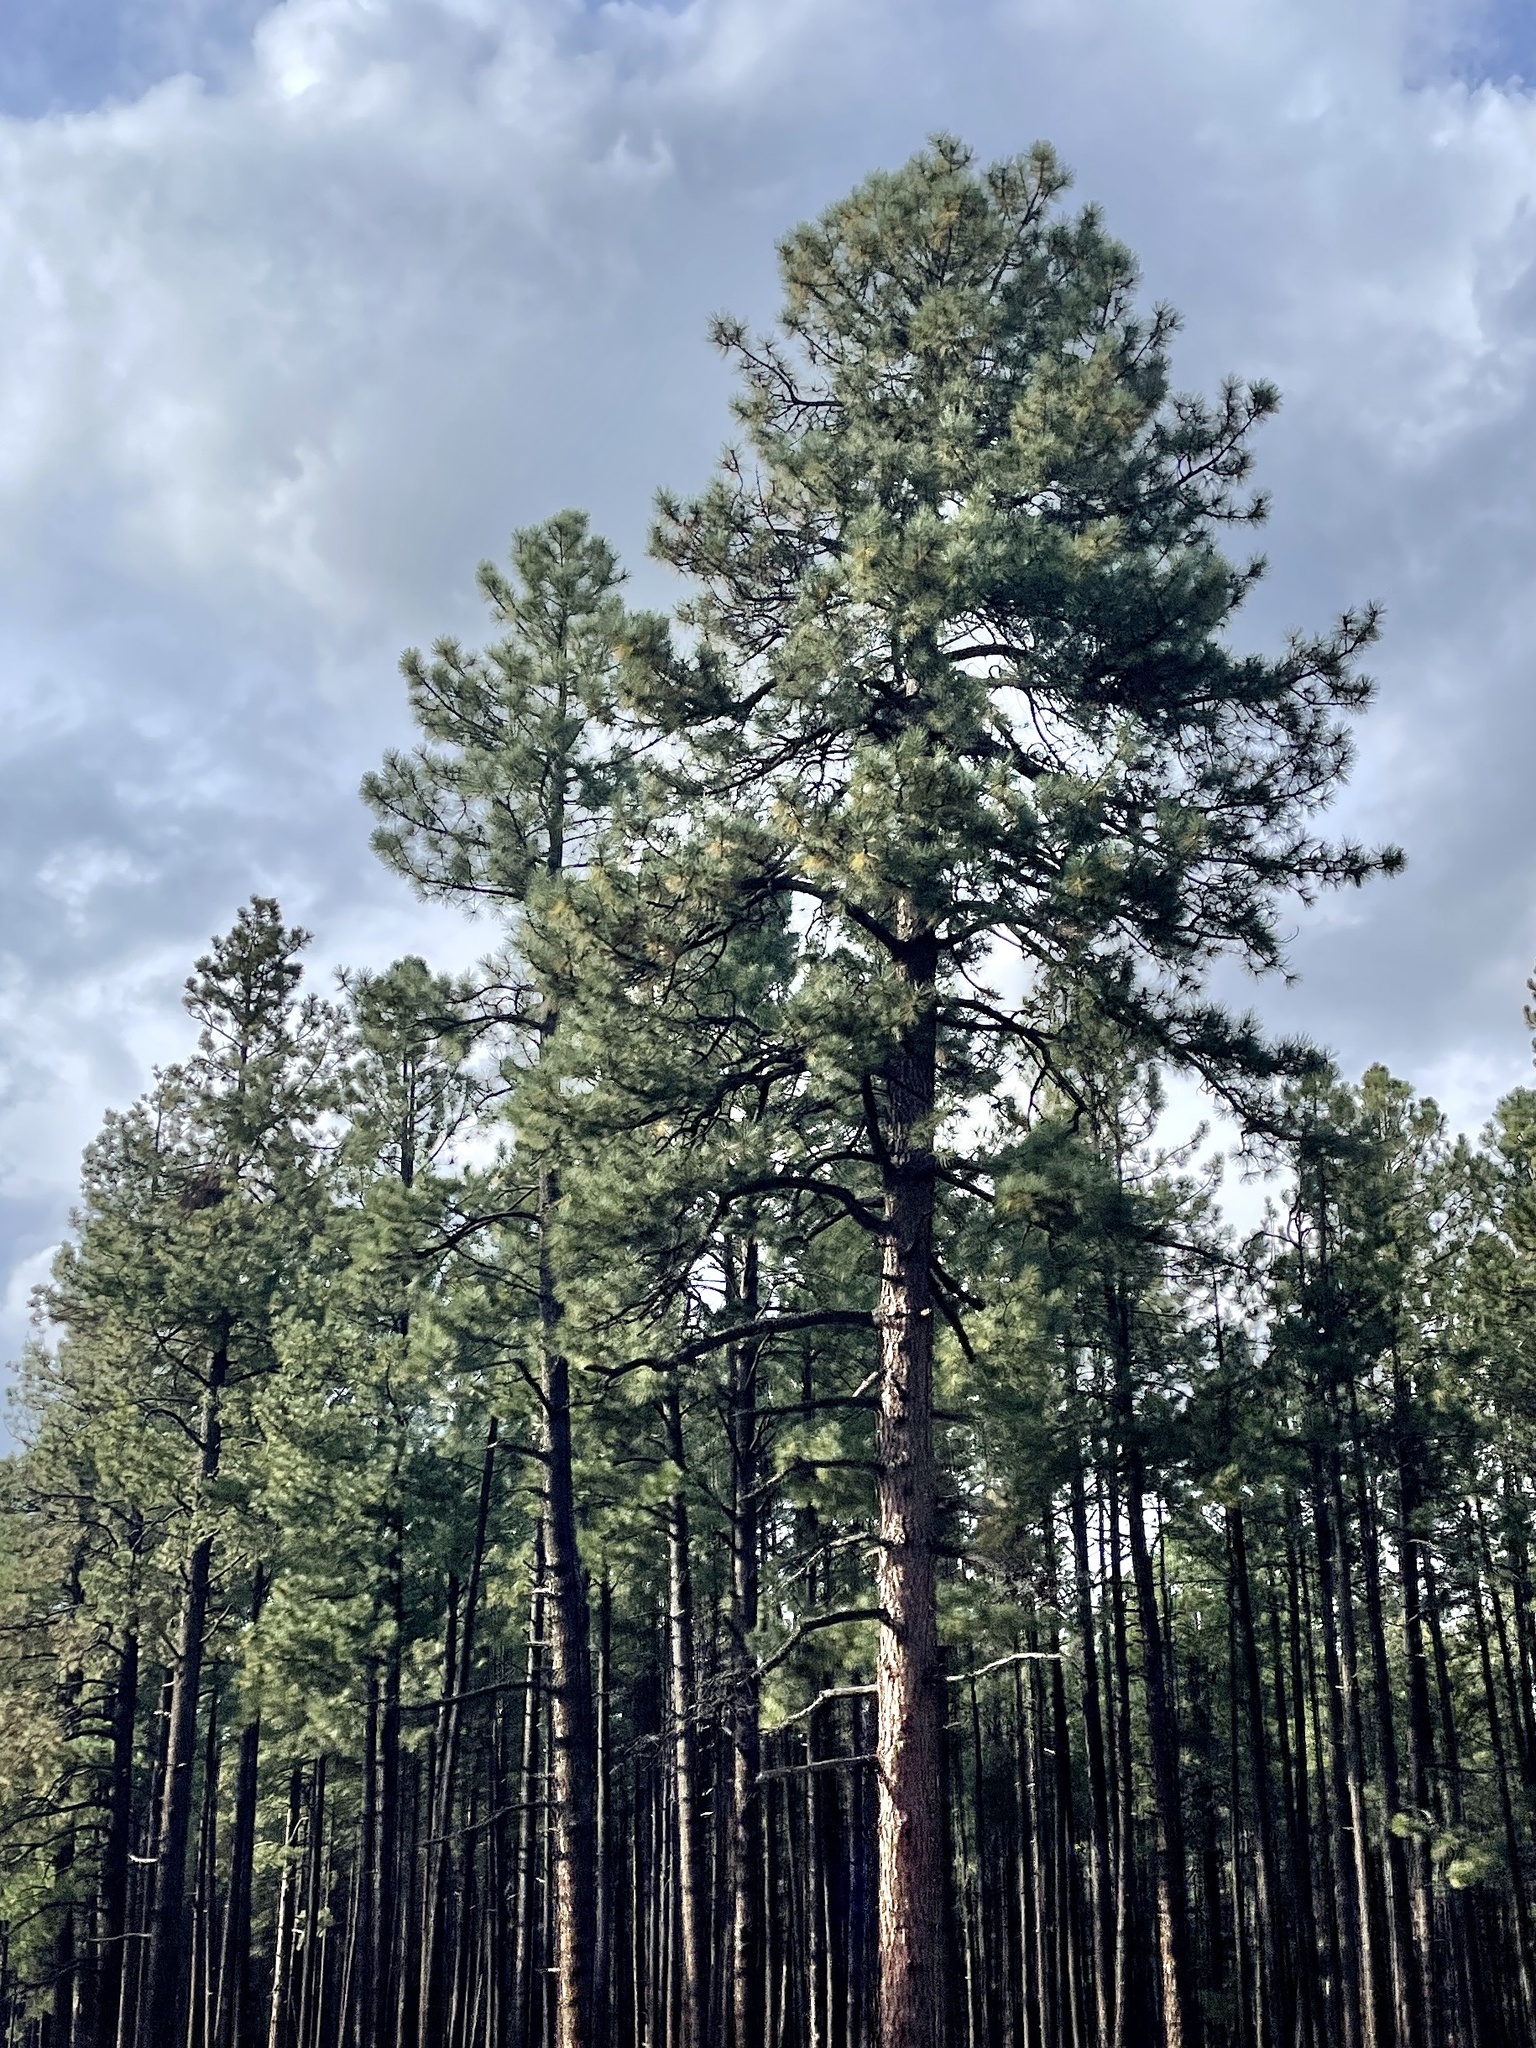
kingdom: Plantae
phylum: Tracheophyta
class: Pinopsida
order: Pinales
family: Pinaceae
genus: Pinus
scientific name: Pinus ponderosa
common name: Western yellow-pine
